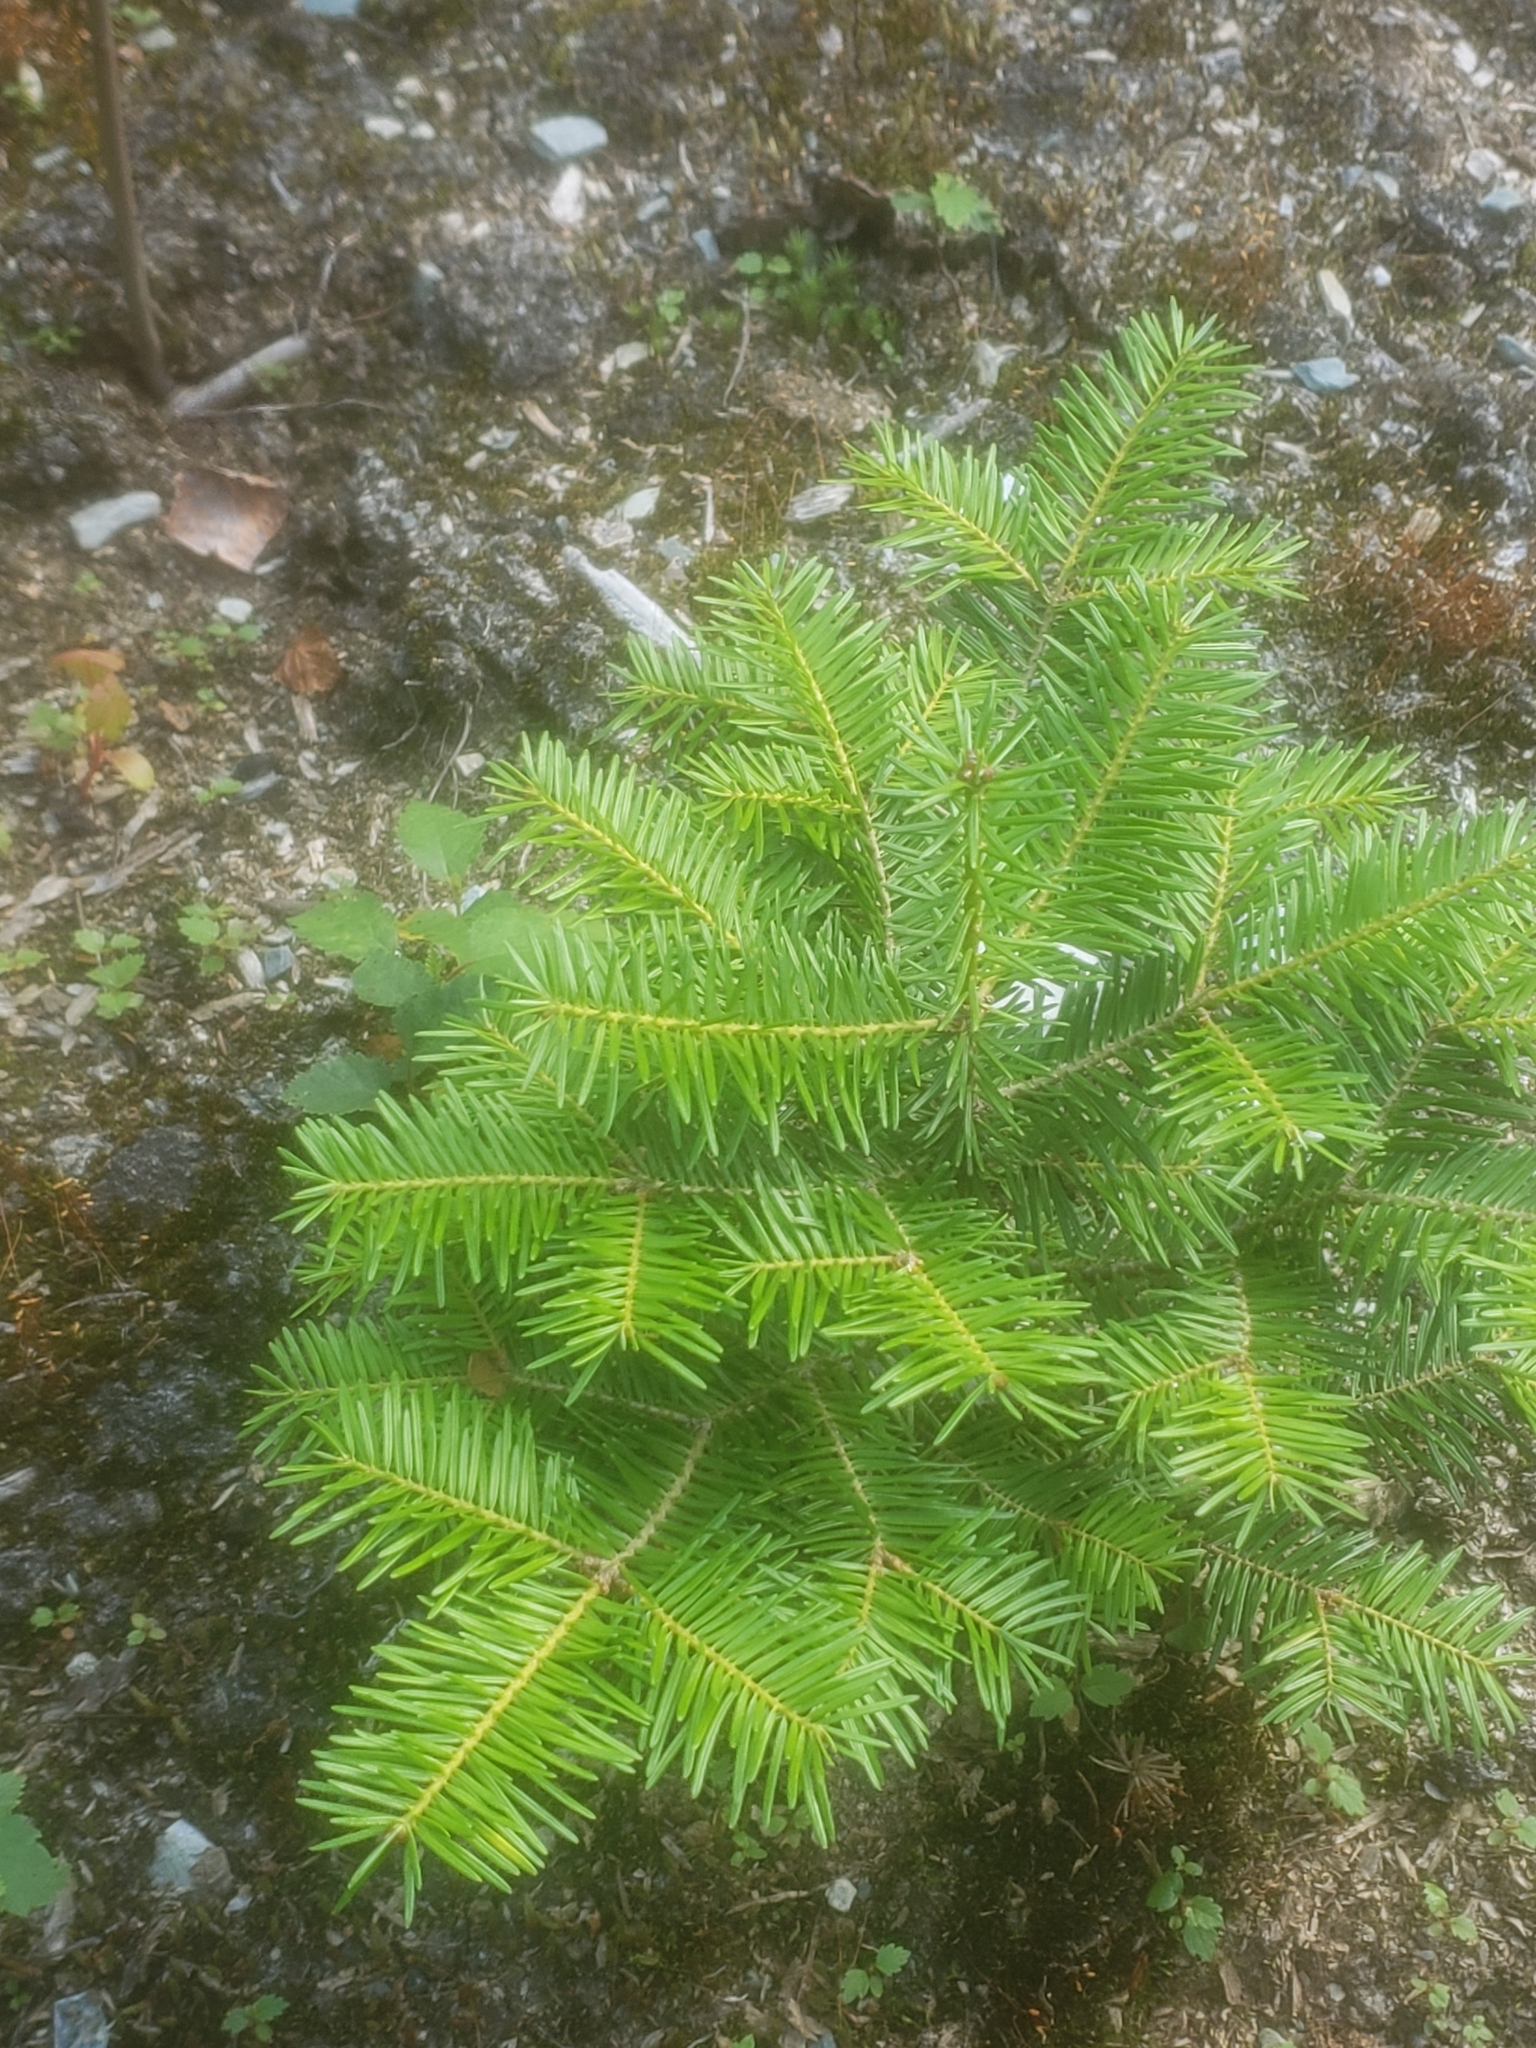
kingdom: Plantae
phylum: Tracheophyta
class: Pinopsida
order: Pinales
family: Pinaceae
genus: Abies
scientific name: Abies balsamea
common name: Balsam fir
